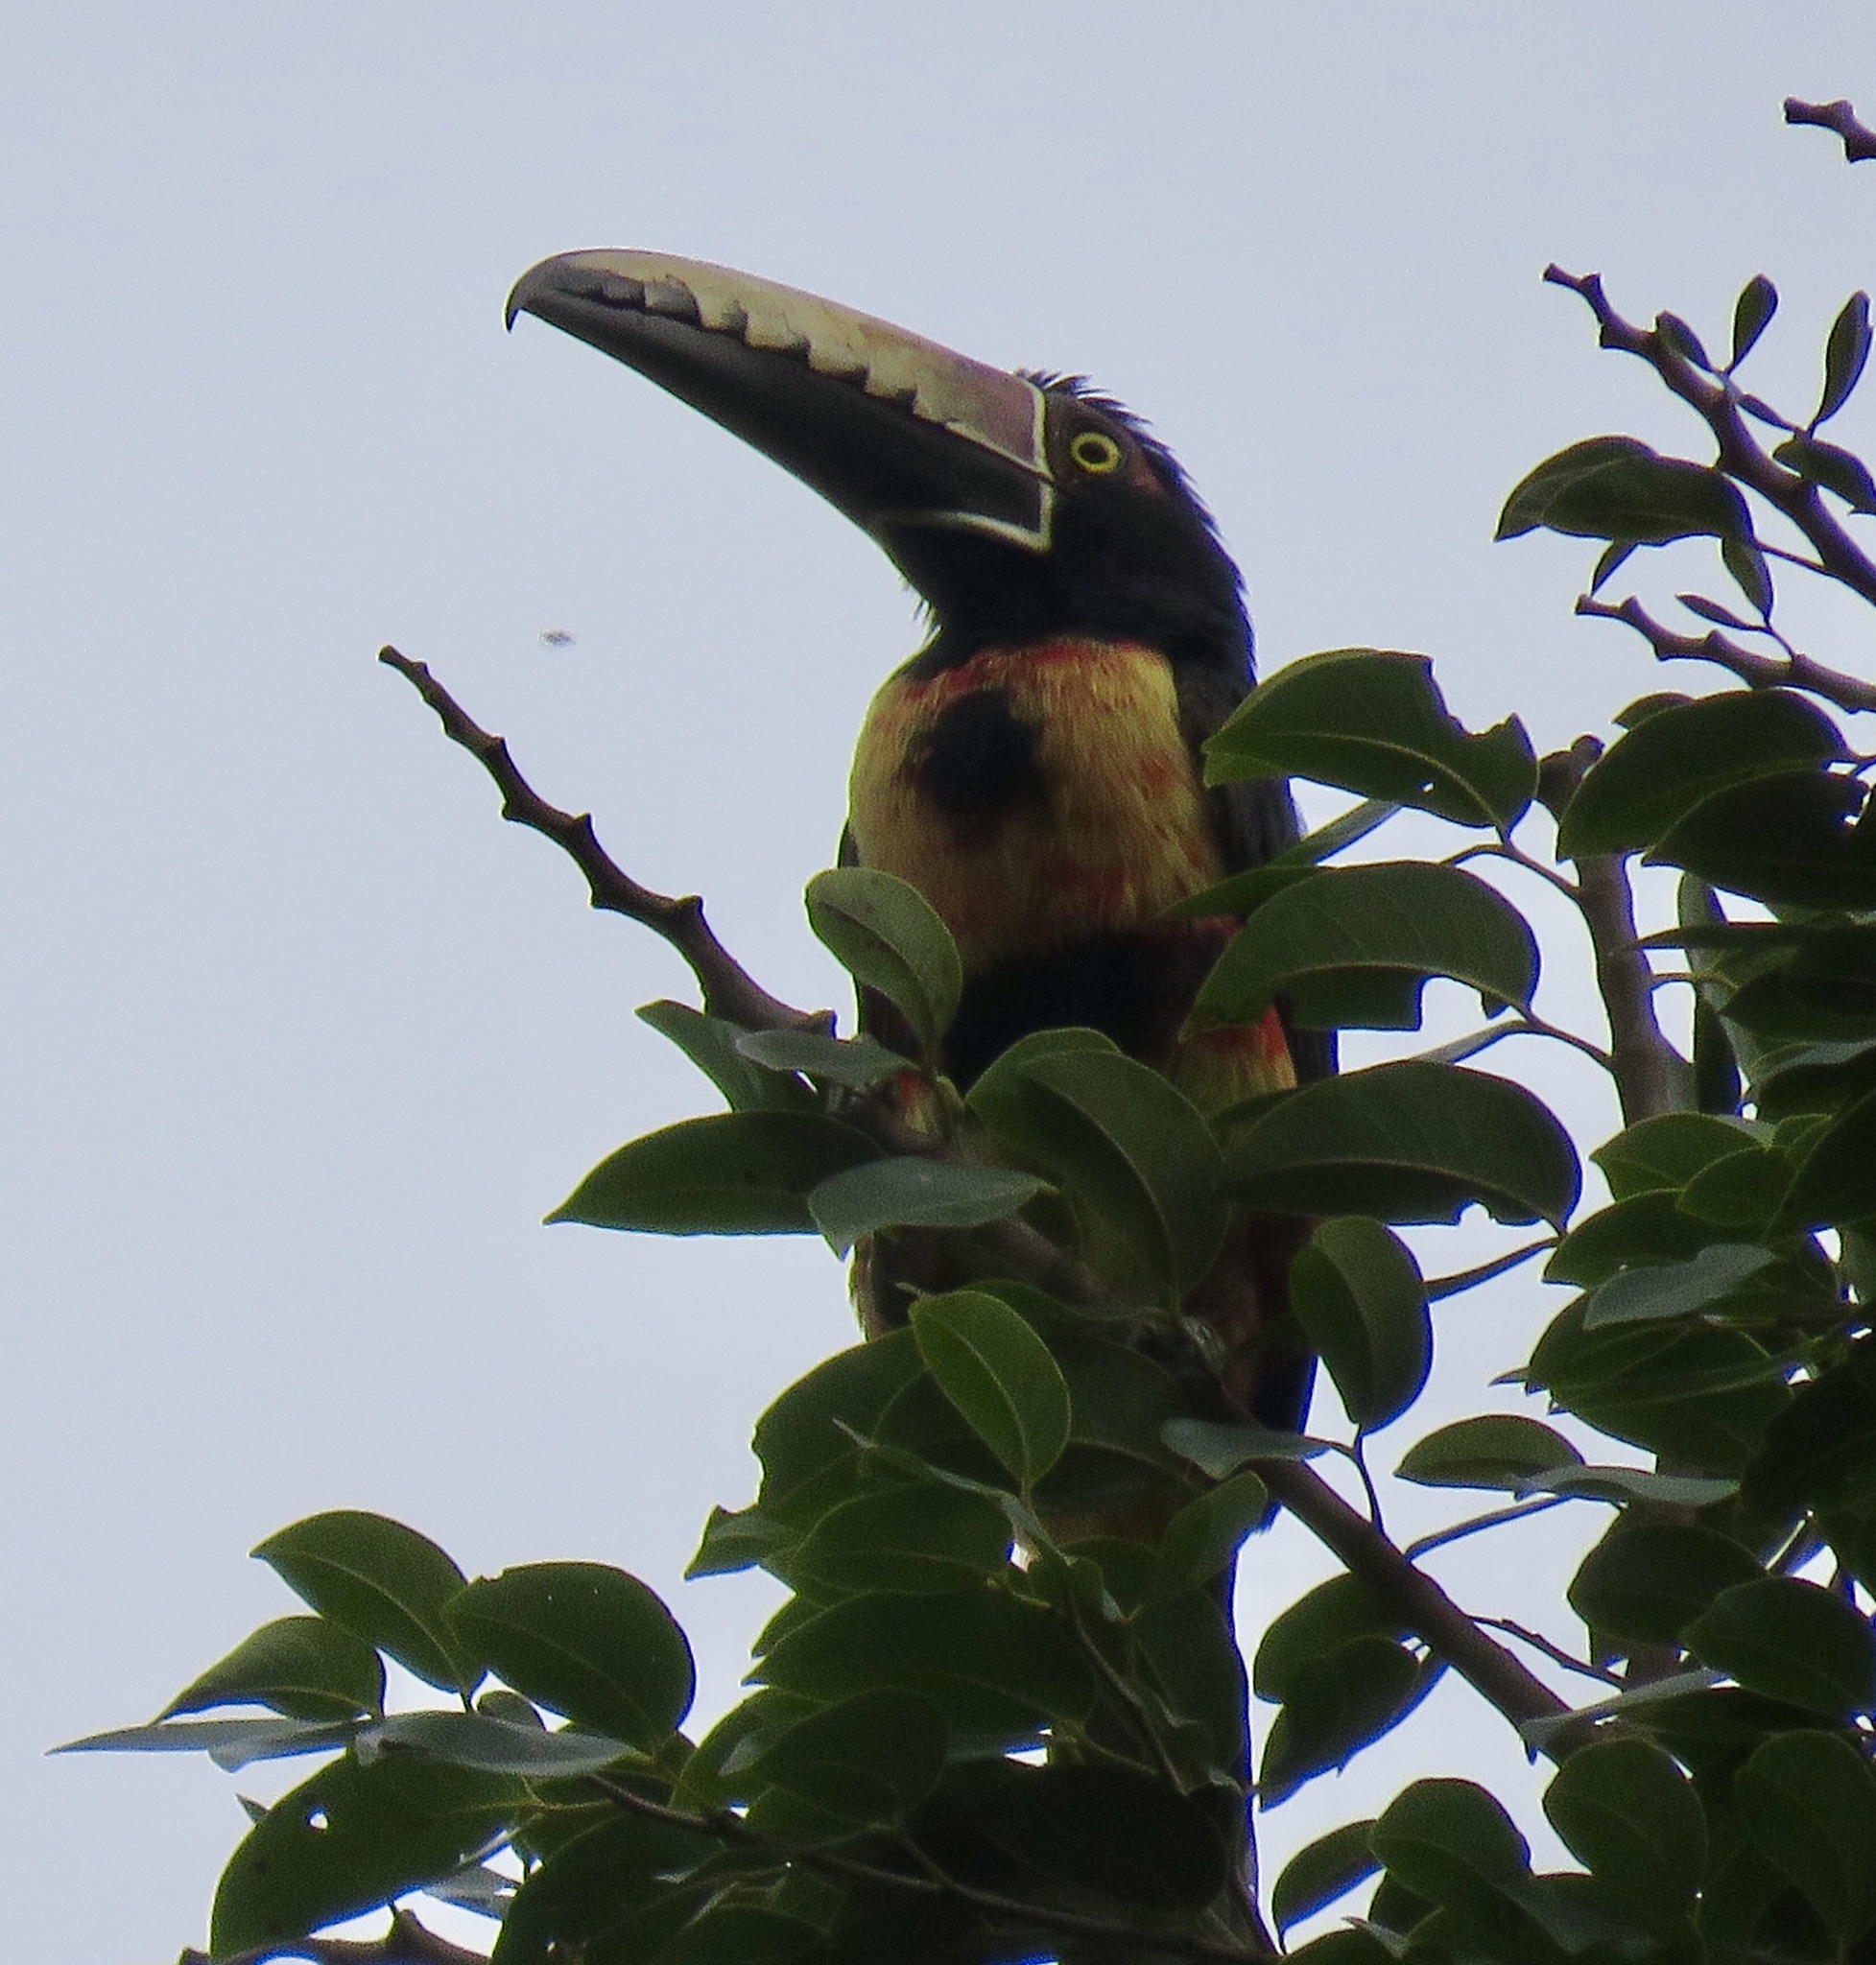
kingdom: Animalia
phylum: Chordata
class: Aves
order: Piciformes
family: Ramphastidae
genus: Pteroglossus
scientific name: Pteroglossus torquatus
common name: Collared aracari
